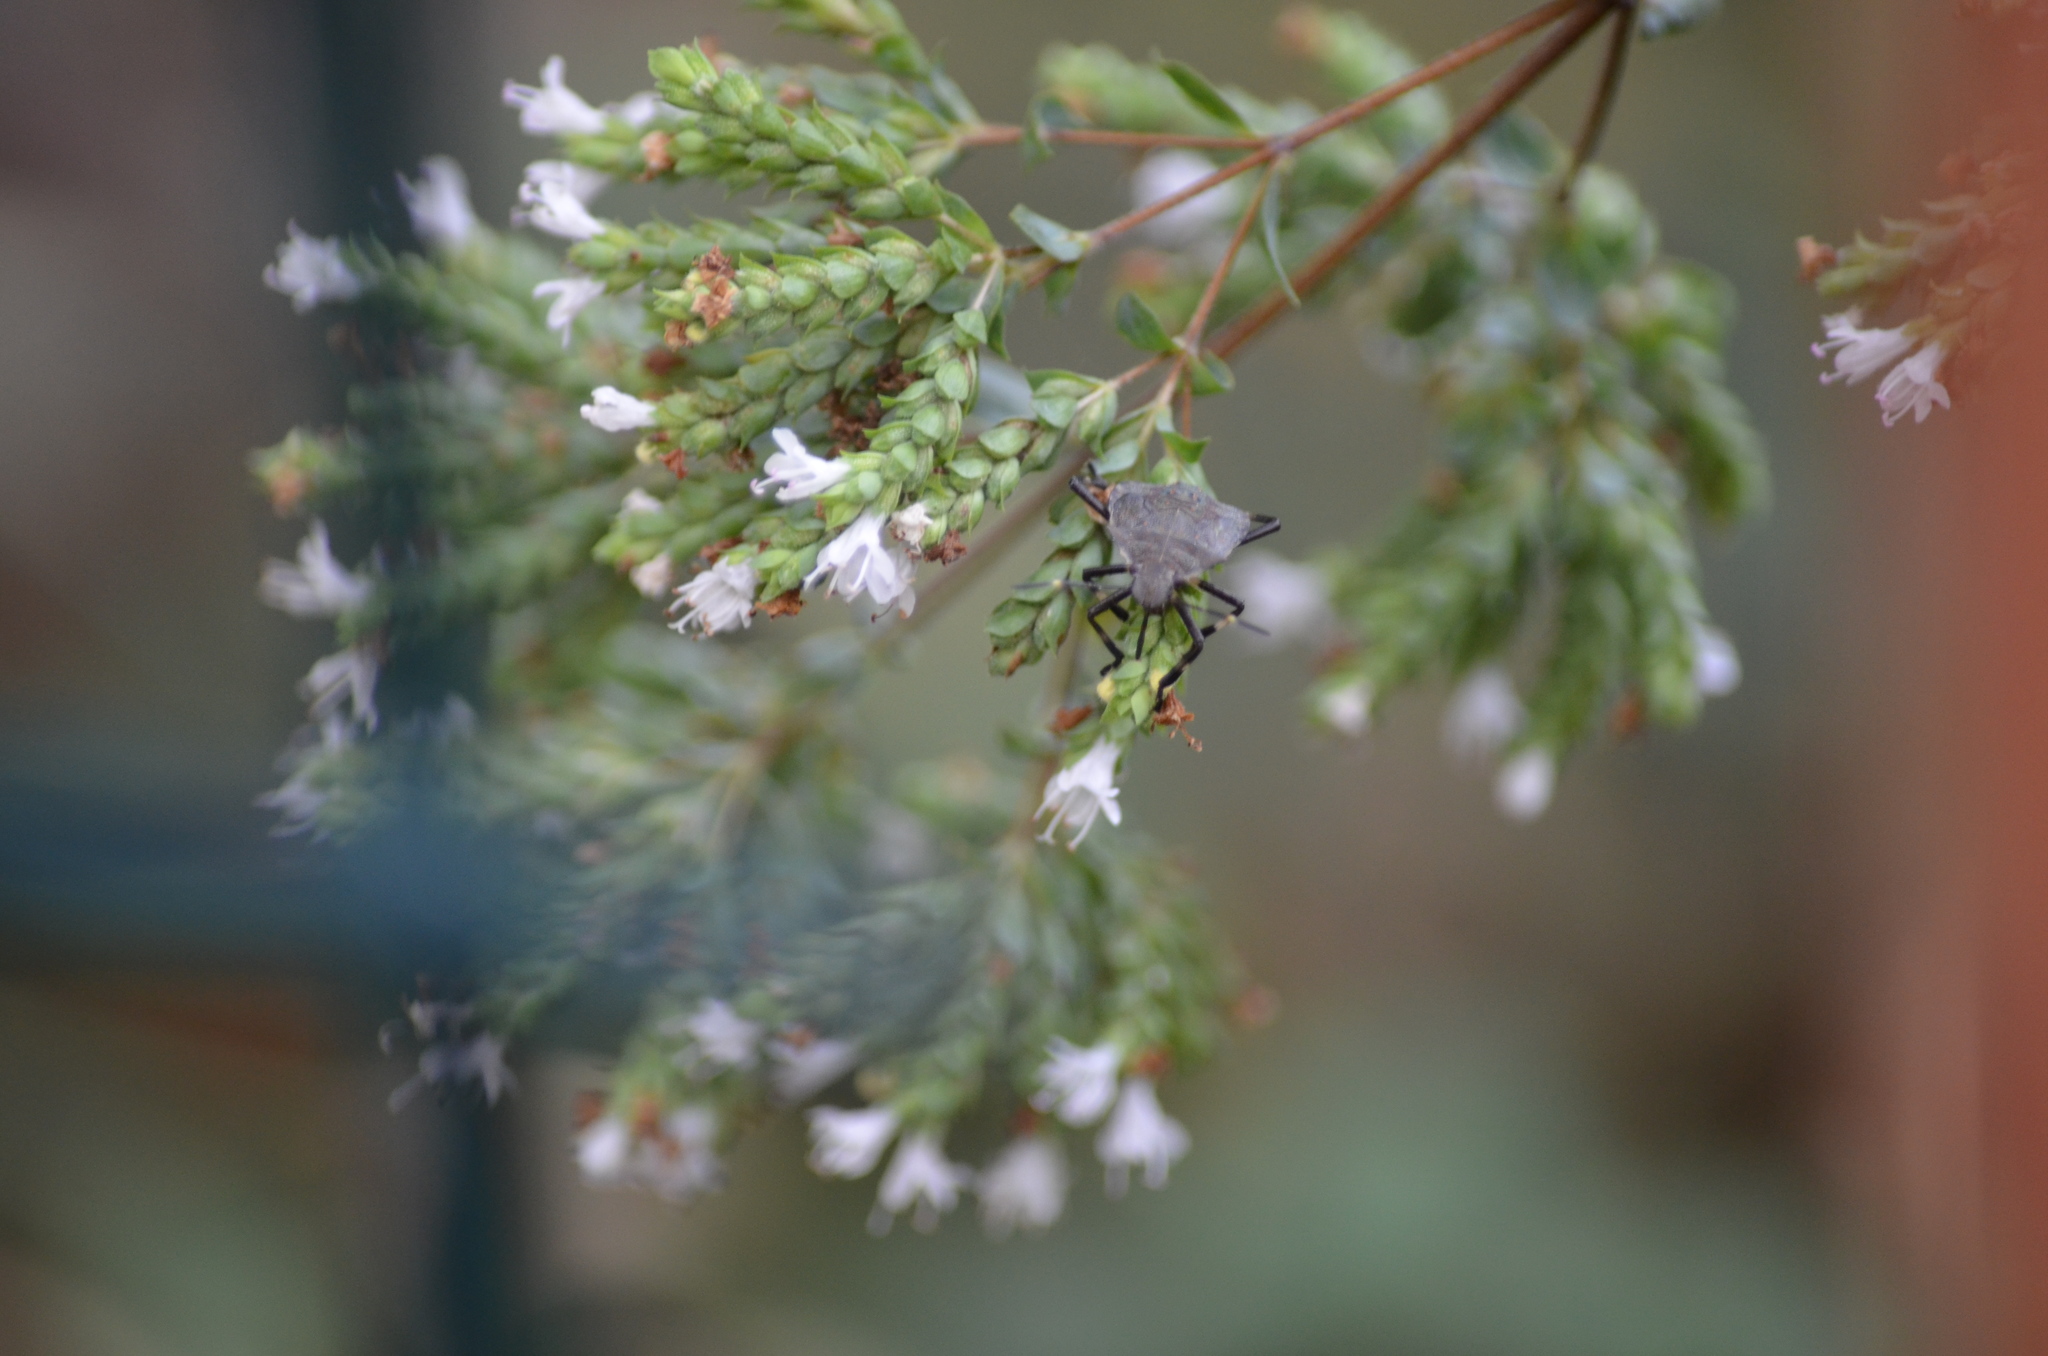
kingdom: Animalia
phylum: Arthropoda
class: Insecta
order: Hemiptera
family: Pentatomidae
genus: Halyomorpha
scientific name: Halyomorpha halys
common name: Brown marmorated stink bug
